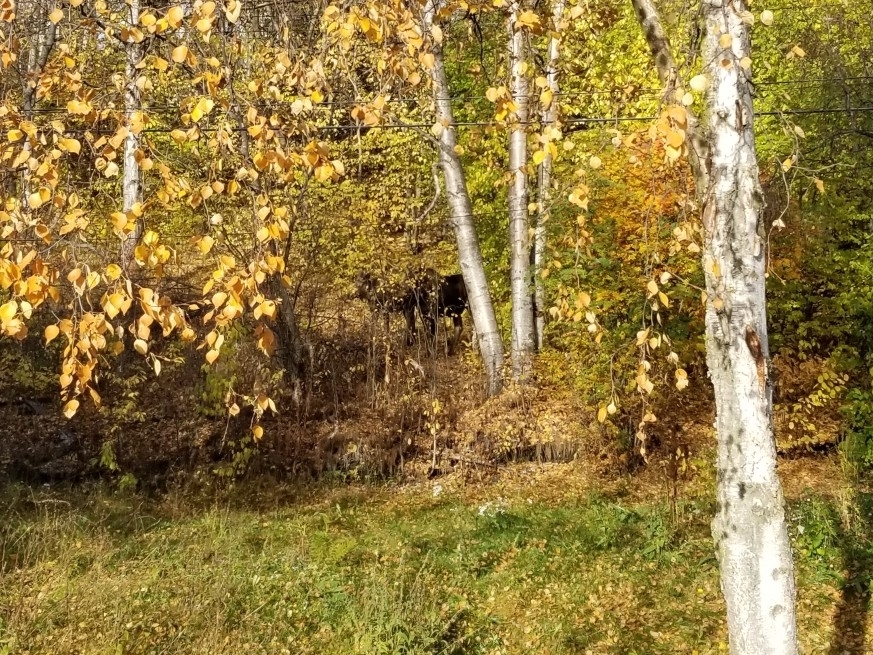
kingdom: Animalia
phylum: Chordata
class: Mammalia
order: Artiodactyla
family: Cervidae
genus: Alces
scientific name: Alces alces
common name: Moose
